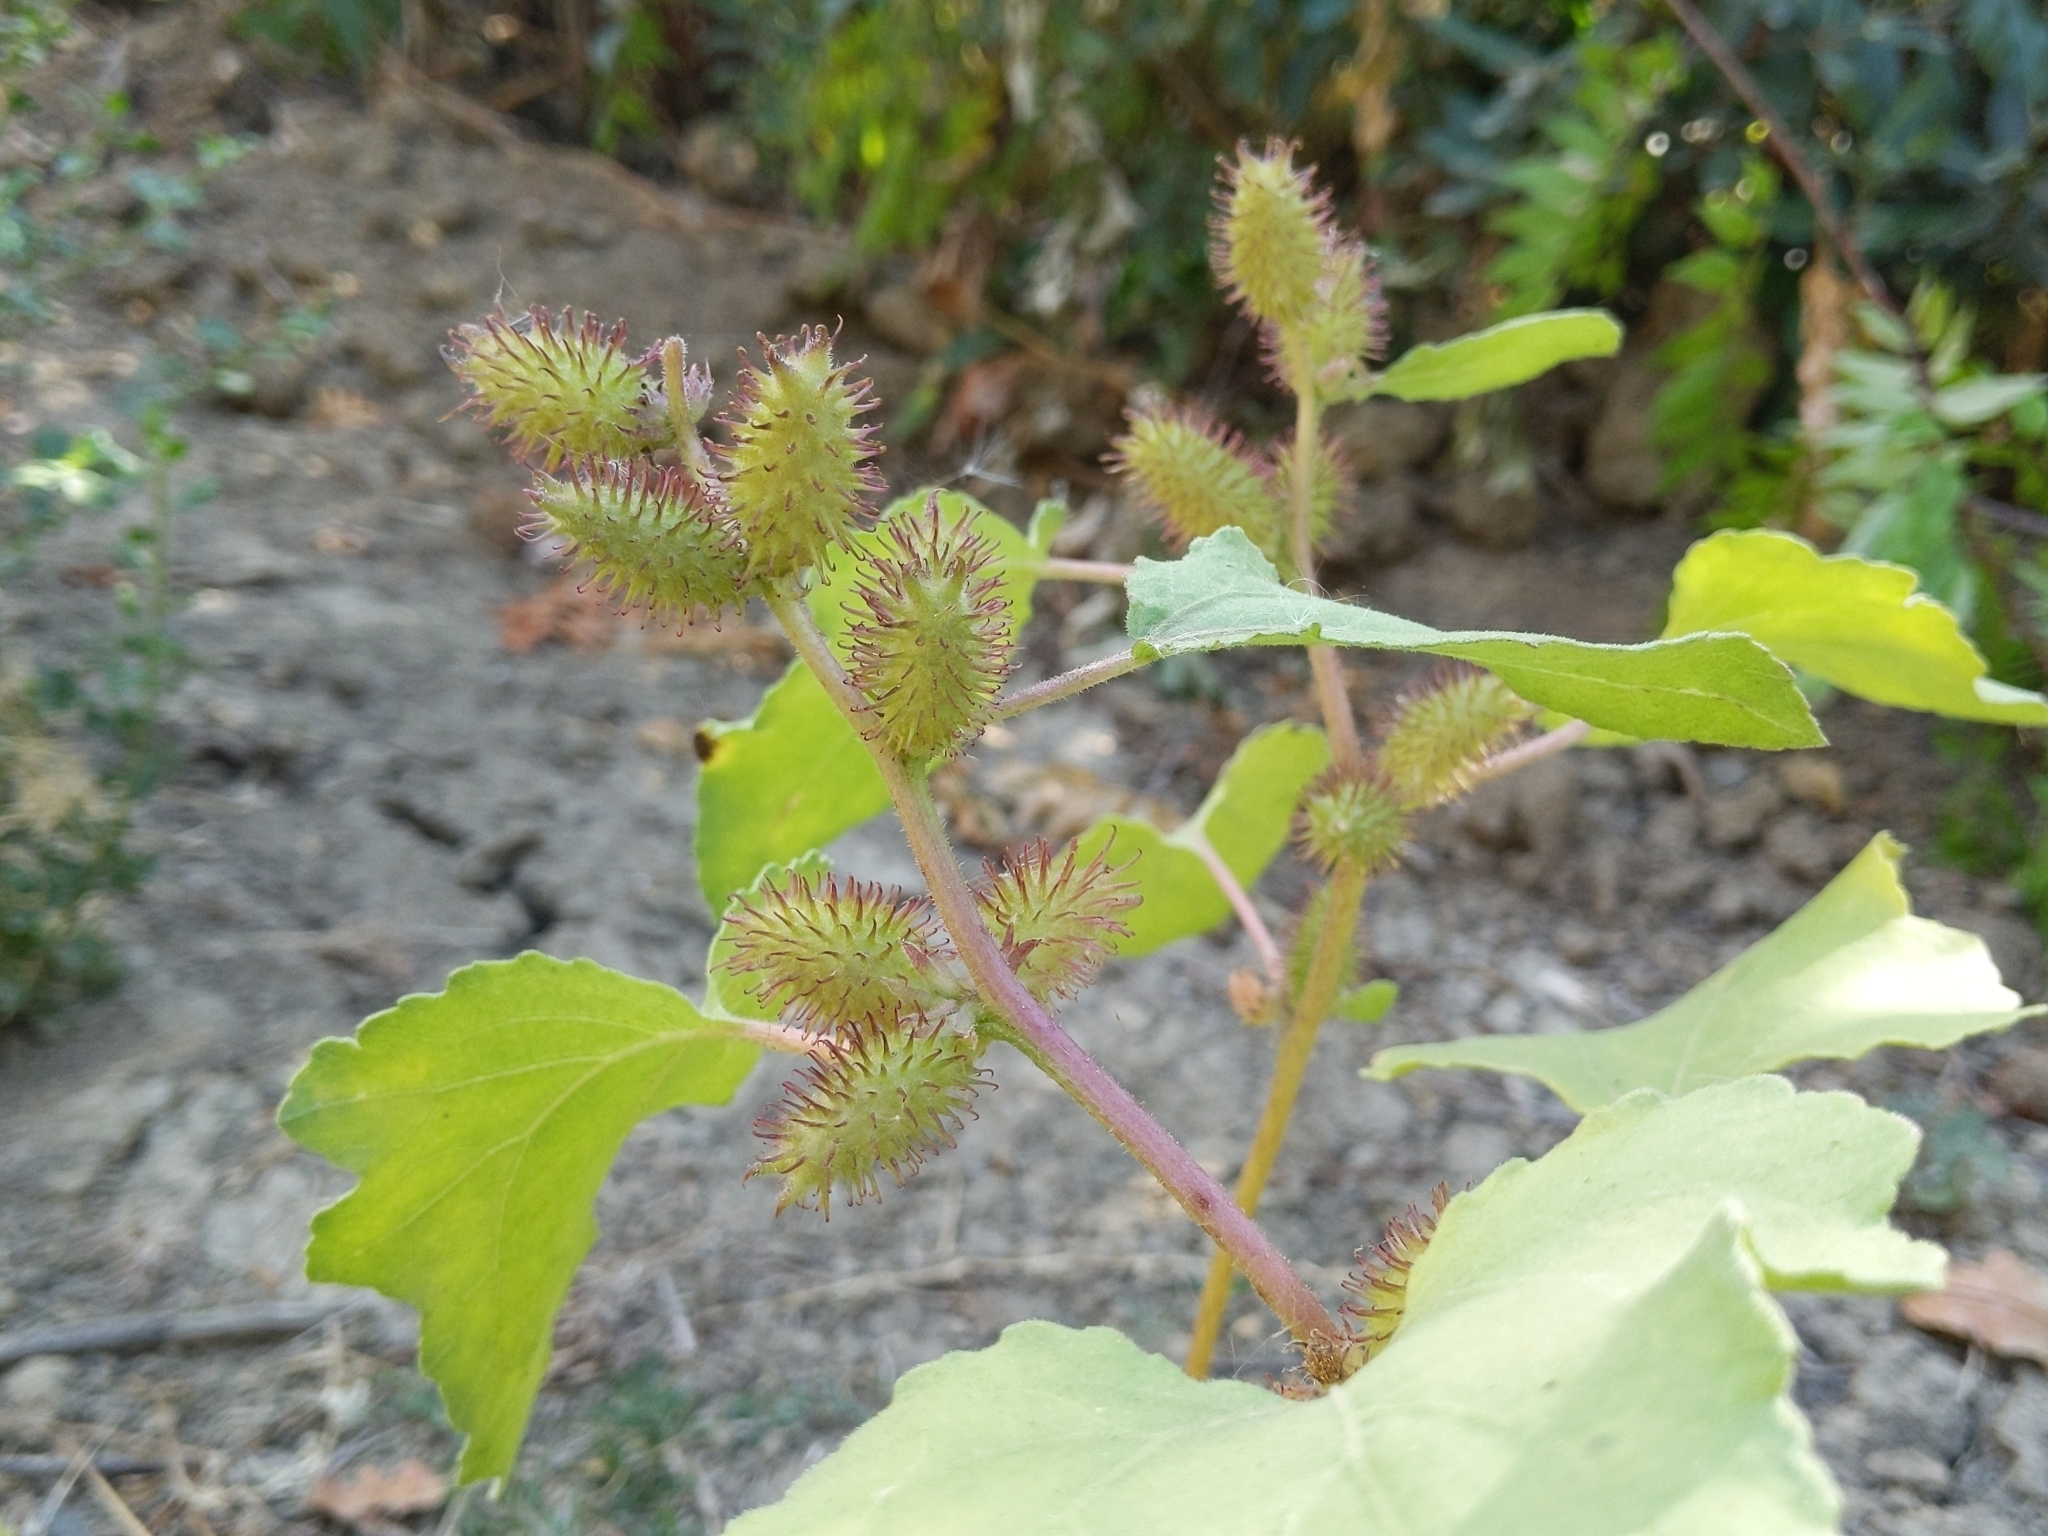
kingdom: Plantae
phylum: Tracheophyta
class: Magnoliopsida
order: Asterales
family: Asteraceae
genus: Xanthium
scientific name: Xanthium strumarium
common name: Rough cocklebur
